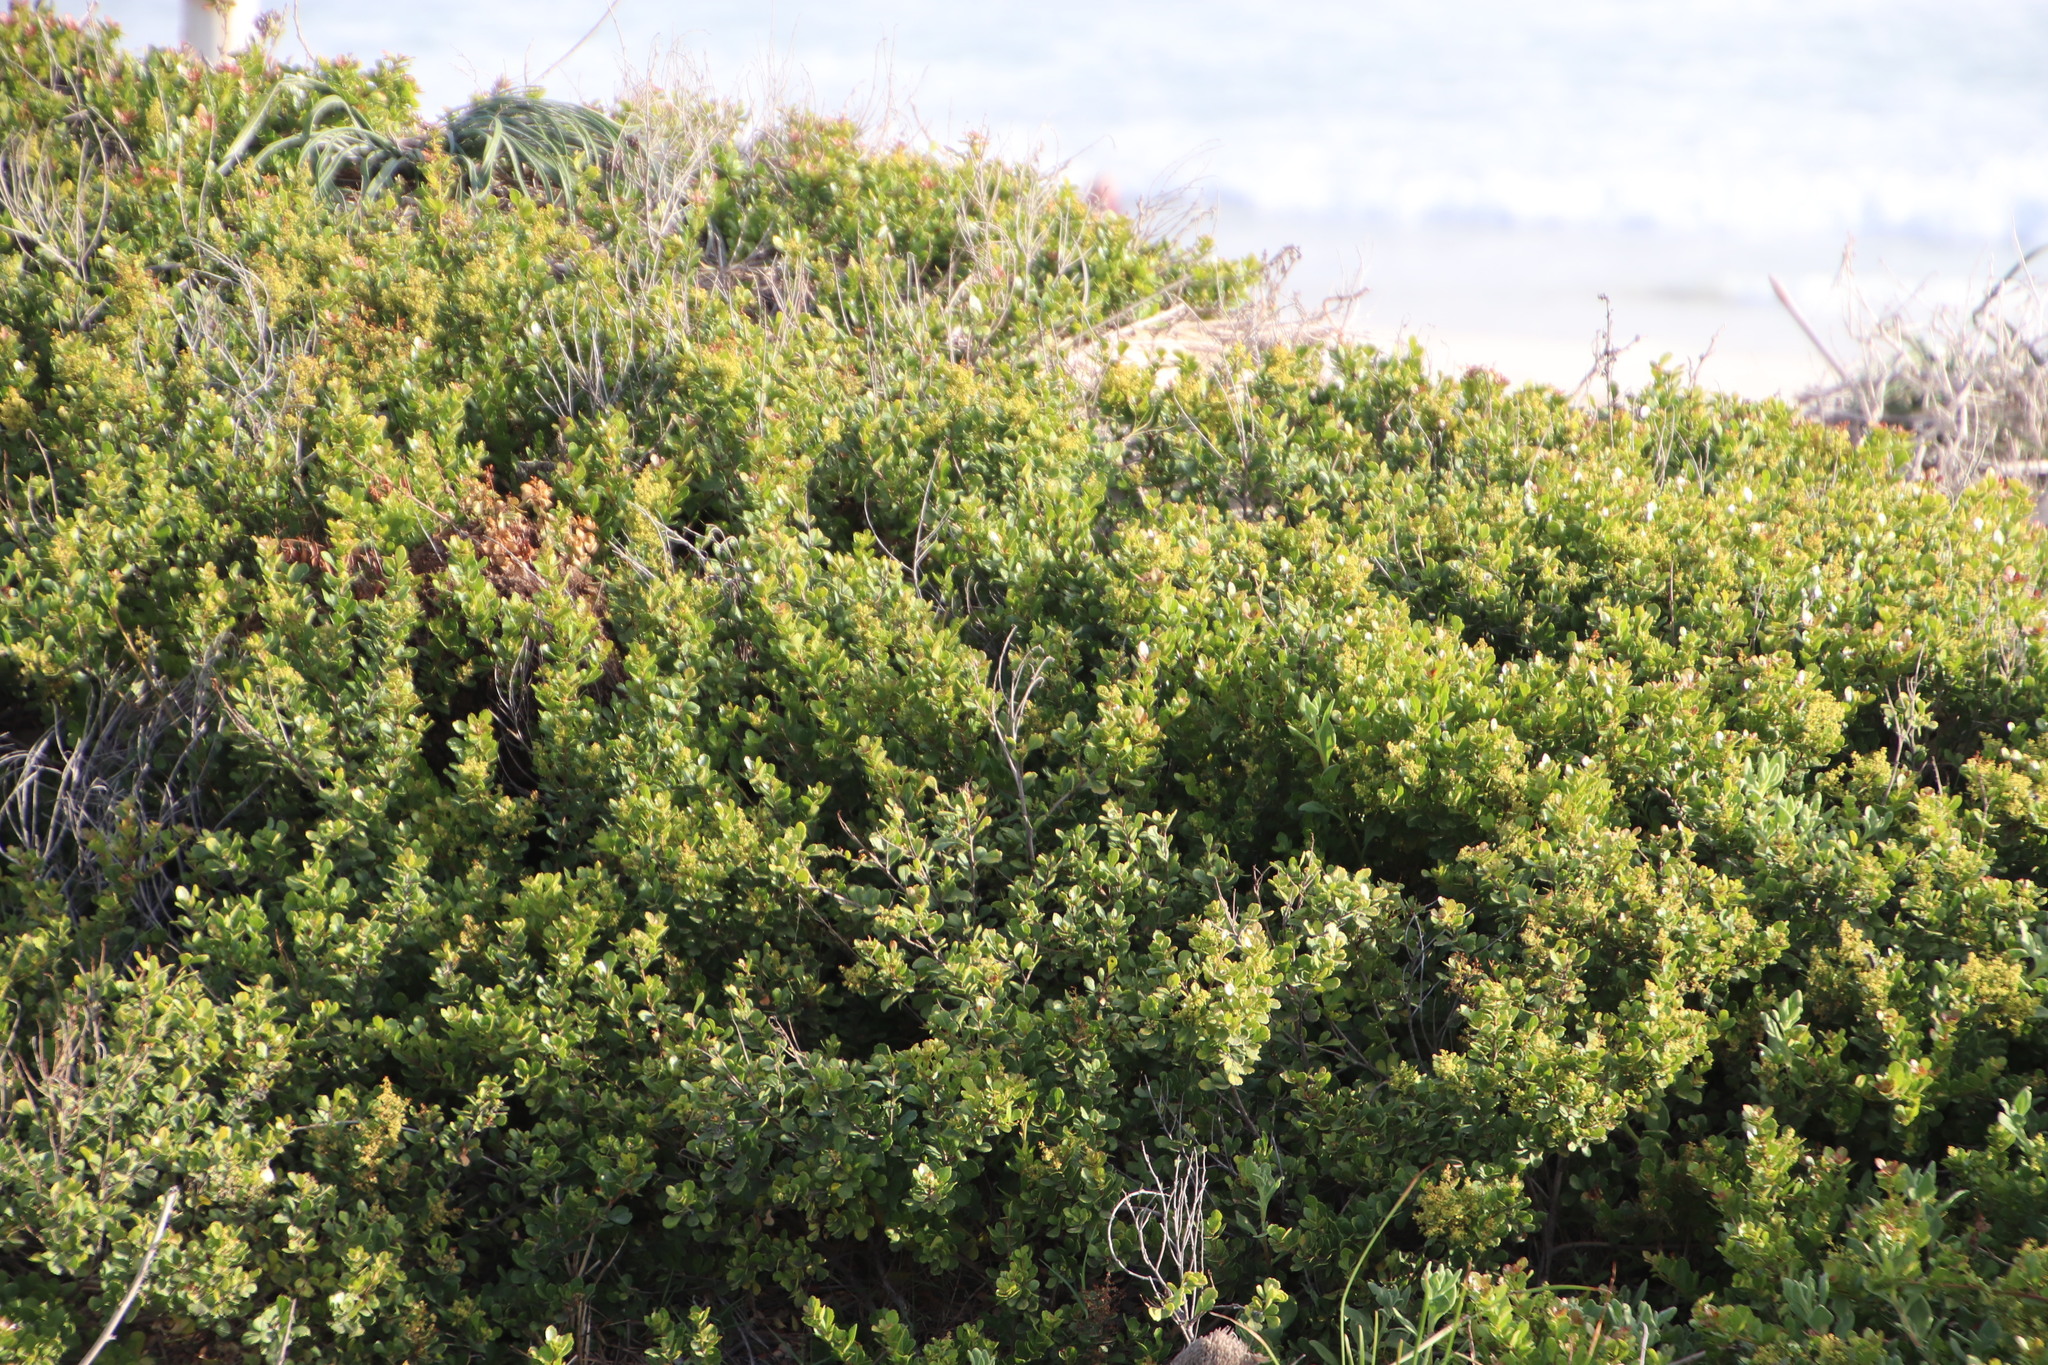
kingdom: Plantae
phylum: Tracheophyta
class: Magnoliopsida
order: Sapindales
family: Anacardiaceae
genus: Searsia
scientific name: Searsia crenata
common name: Crowberry
